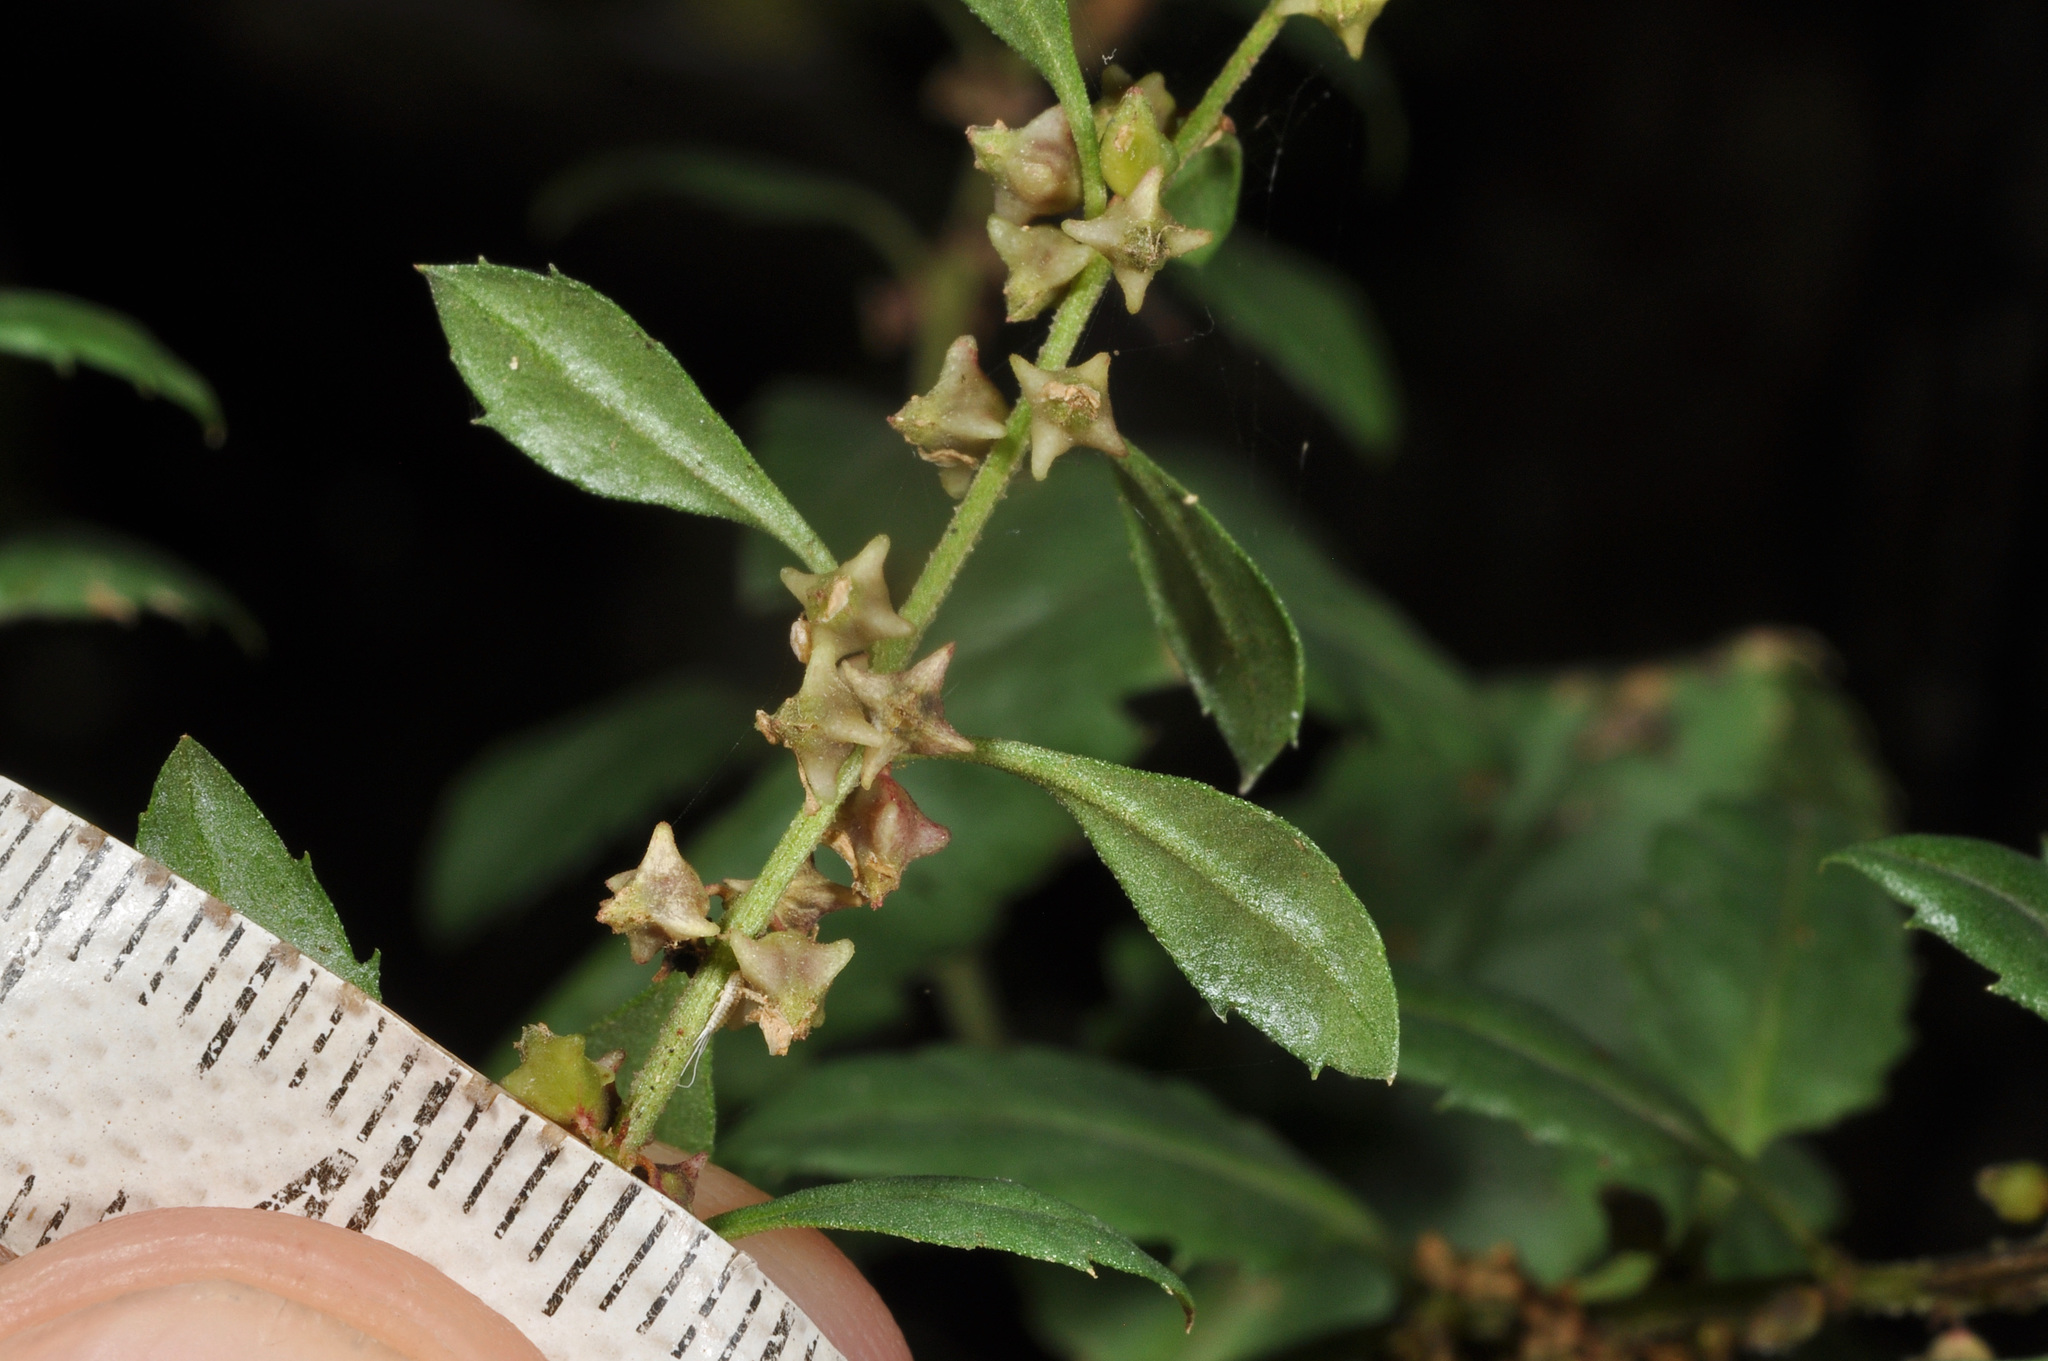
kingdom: Plantae
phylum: Tracheophyta
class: Magnoliopsida
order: Saxifragales
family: Haloragaceae
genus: Haloragis
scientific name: Haloragis erecta
